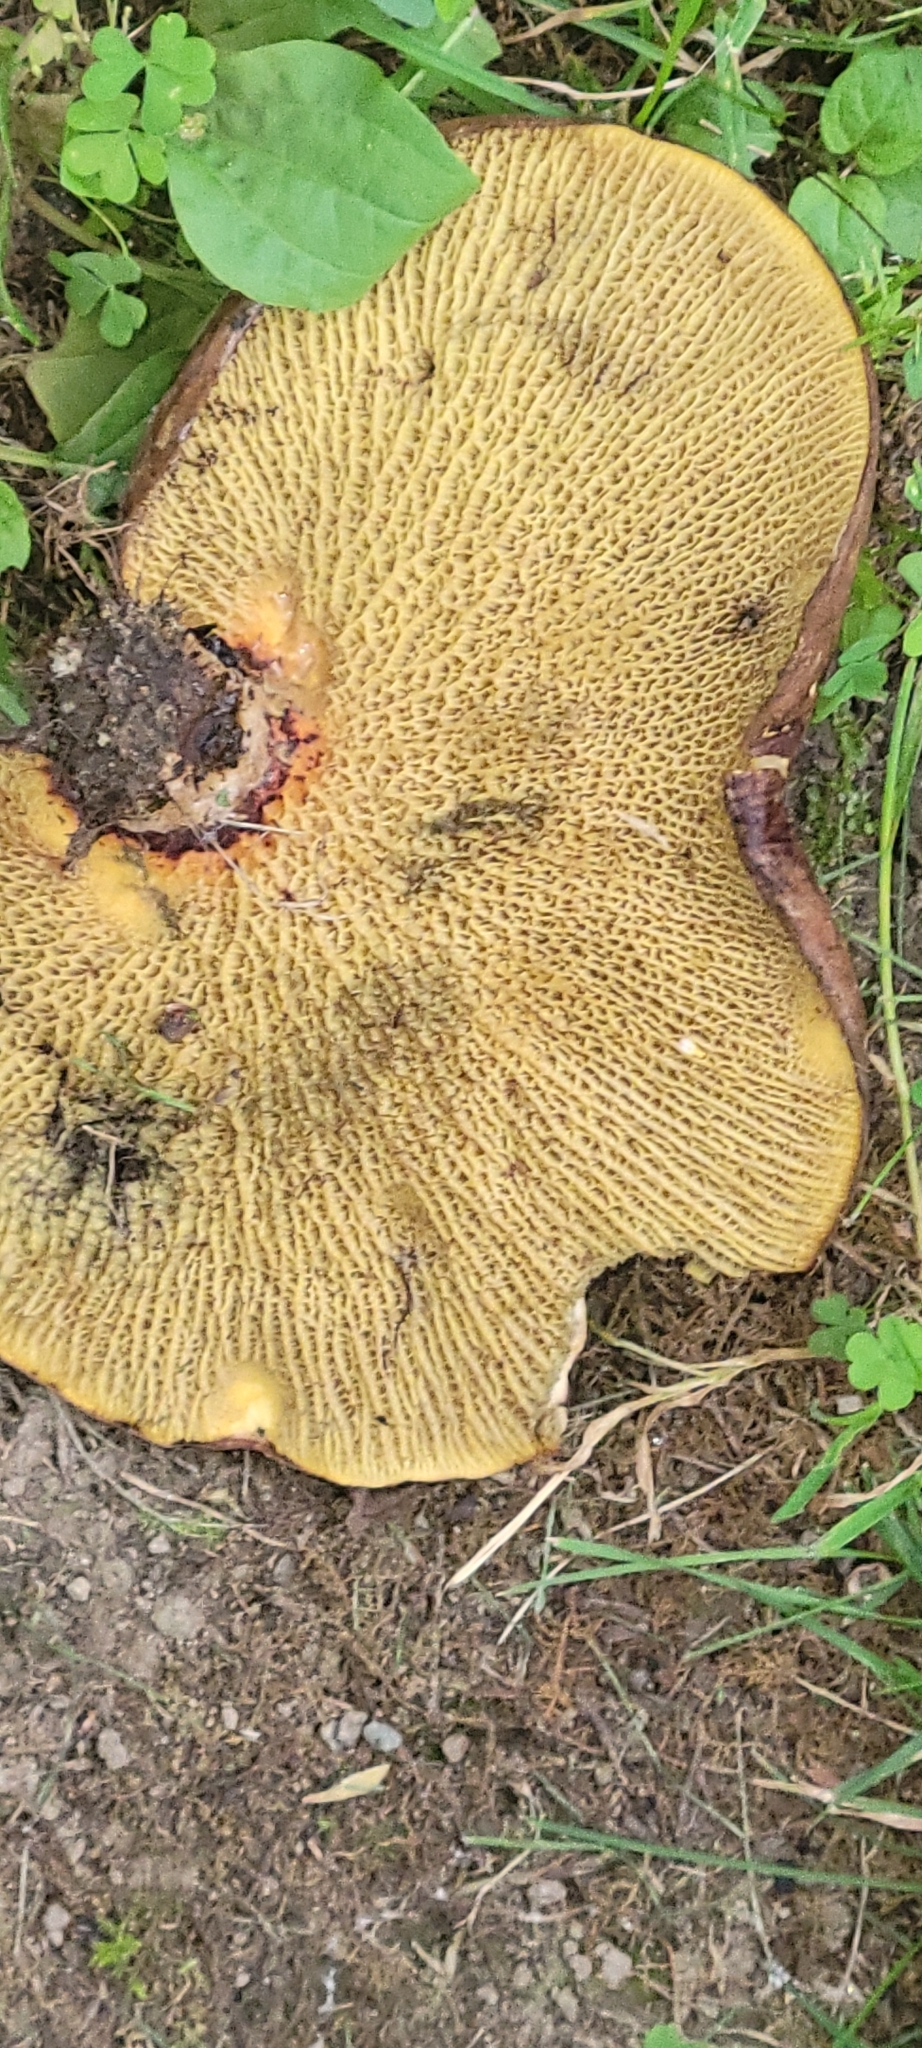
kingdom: Fungi
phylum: Basidiomycota
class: Agaricomycetes
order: Boletales
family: Boletinellaceae
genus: Boletinellus
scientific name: Boletinellus merulioides
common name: Ash tree bolete
